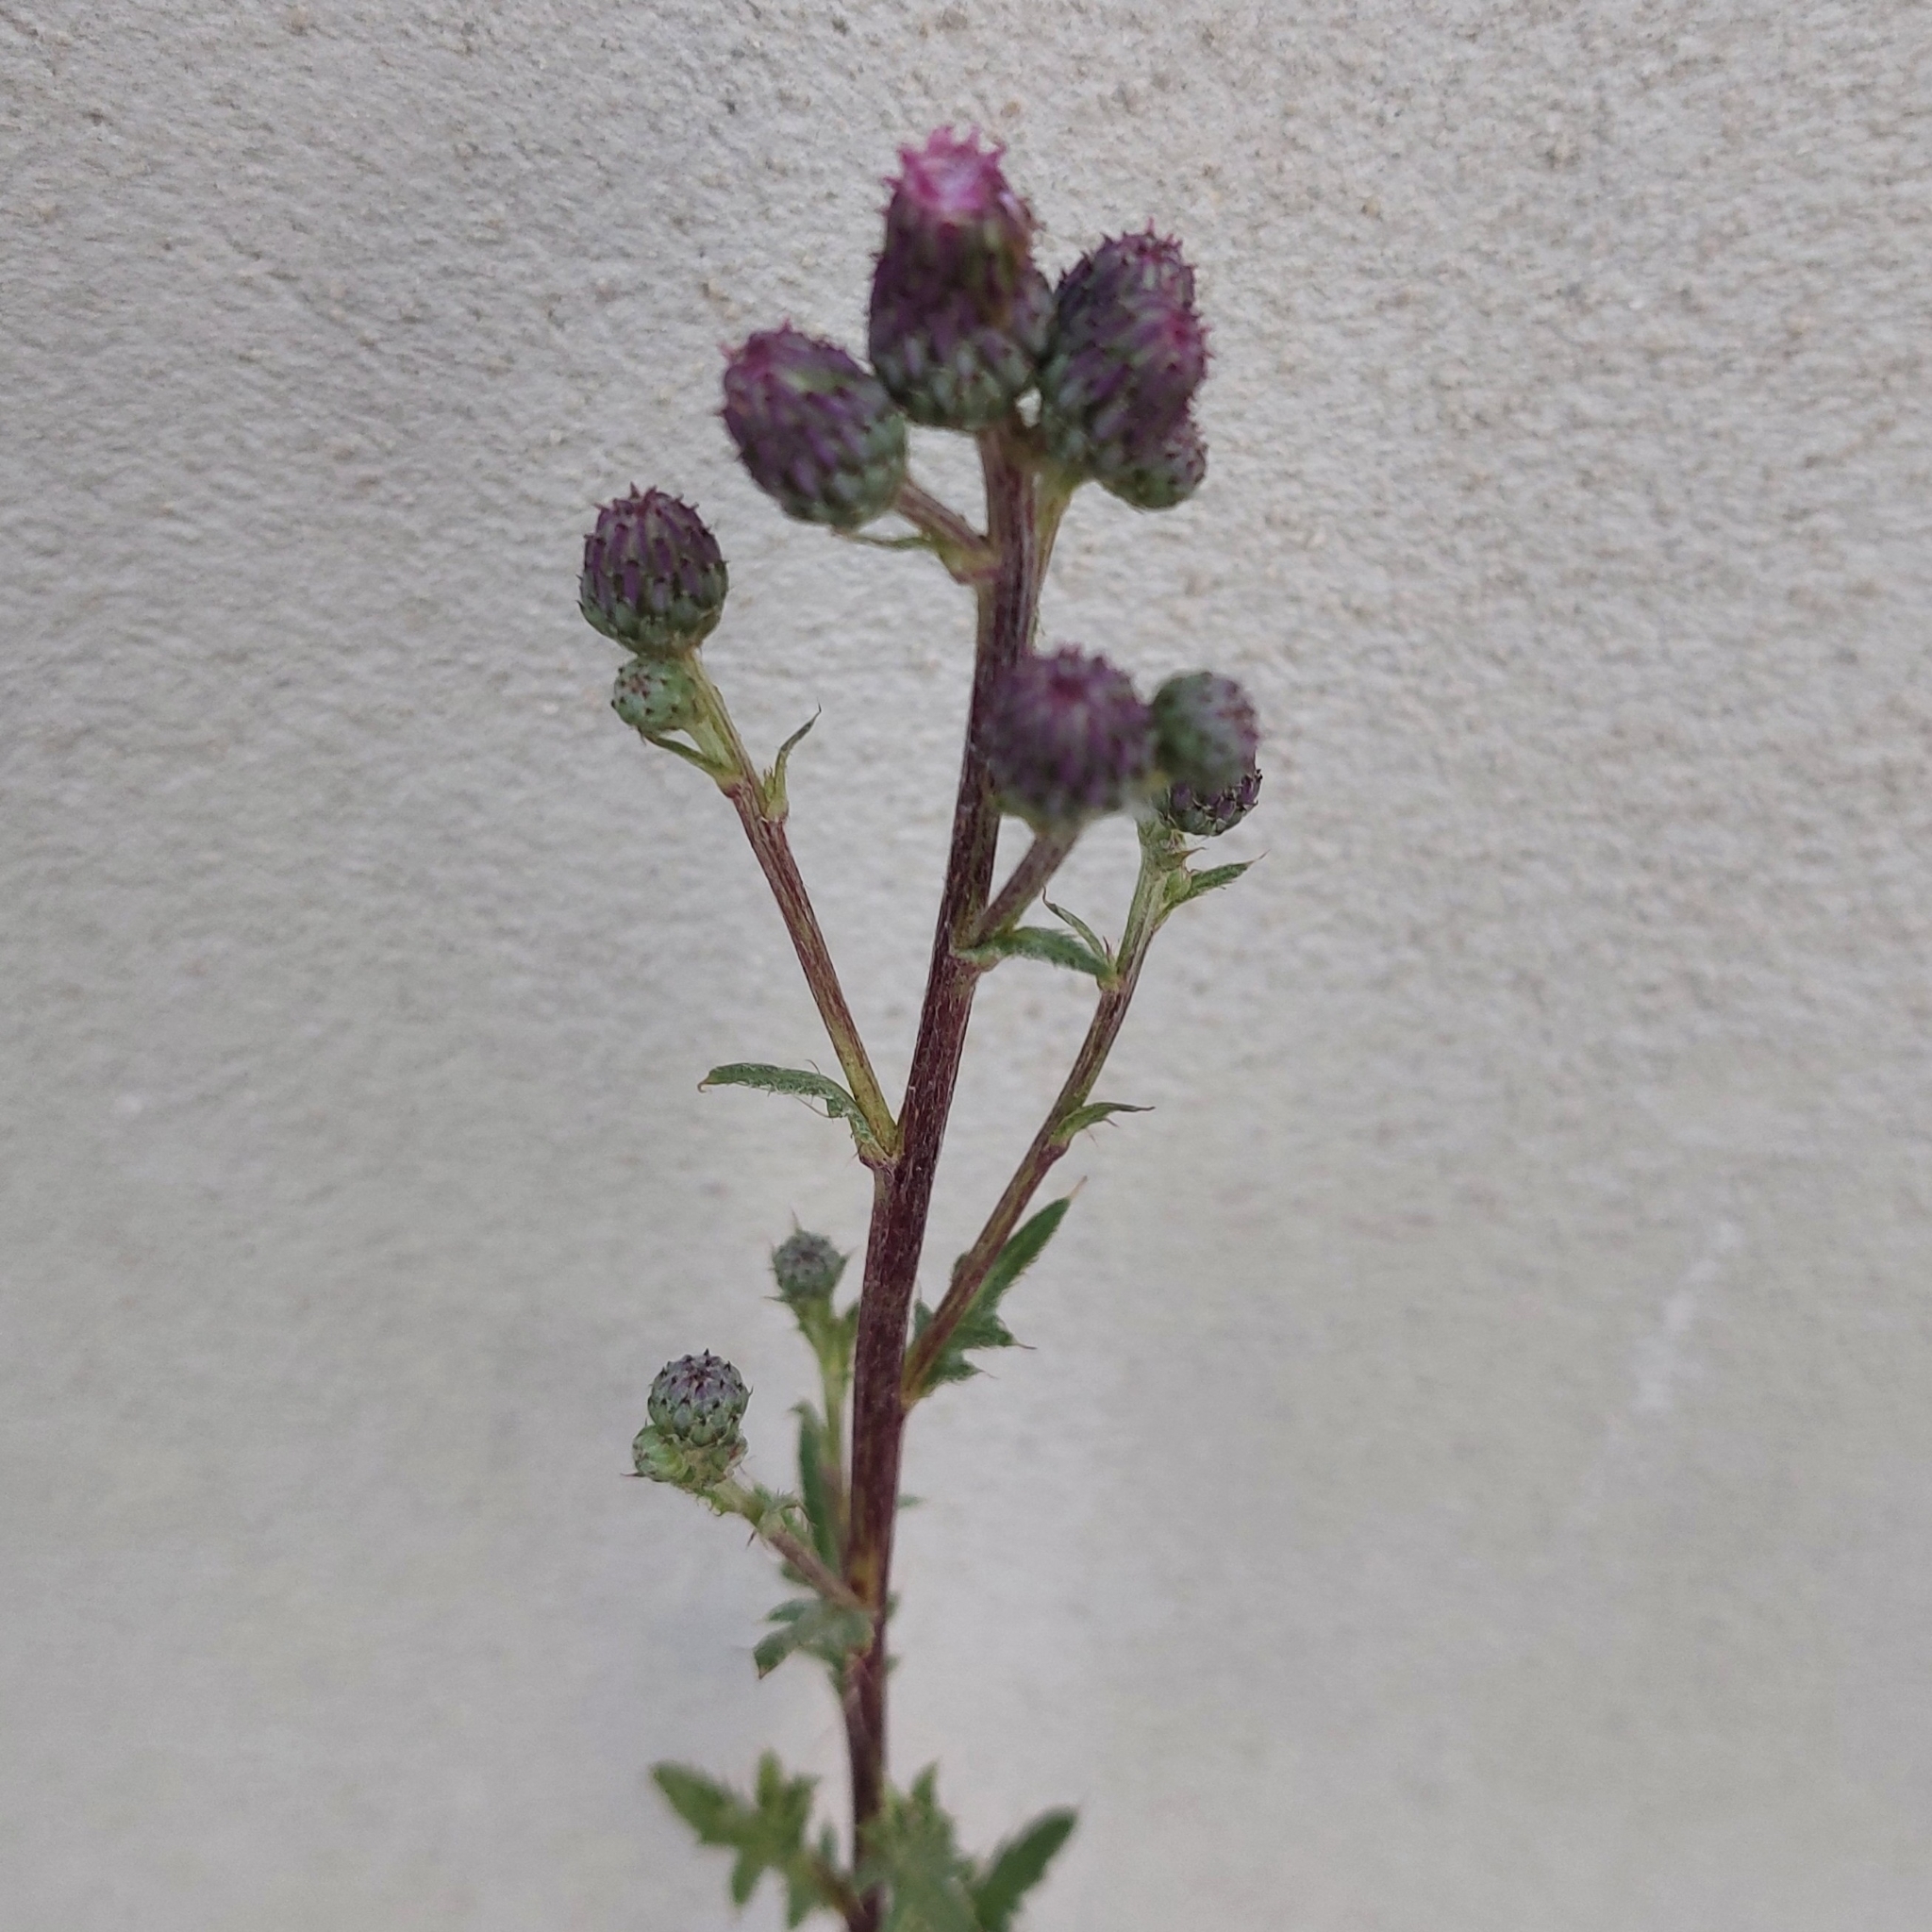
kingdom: Plantae
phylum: Tracheophyta
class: Magnoliopsida
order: Asterales
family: Asteraceae
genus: Cirsium
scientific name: Cirsium arvense
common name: Creeping thistle
